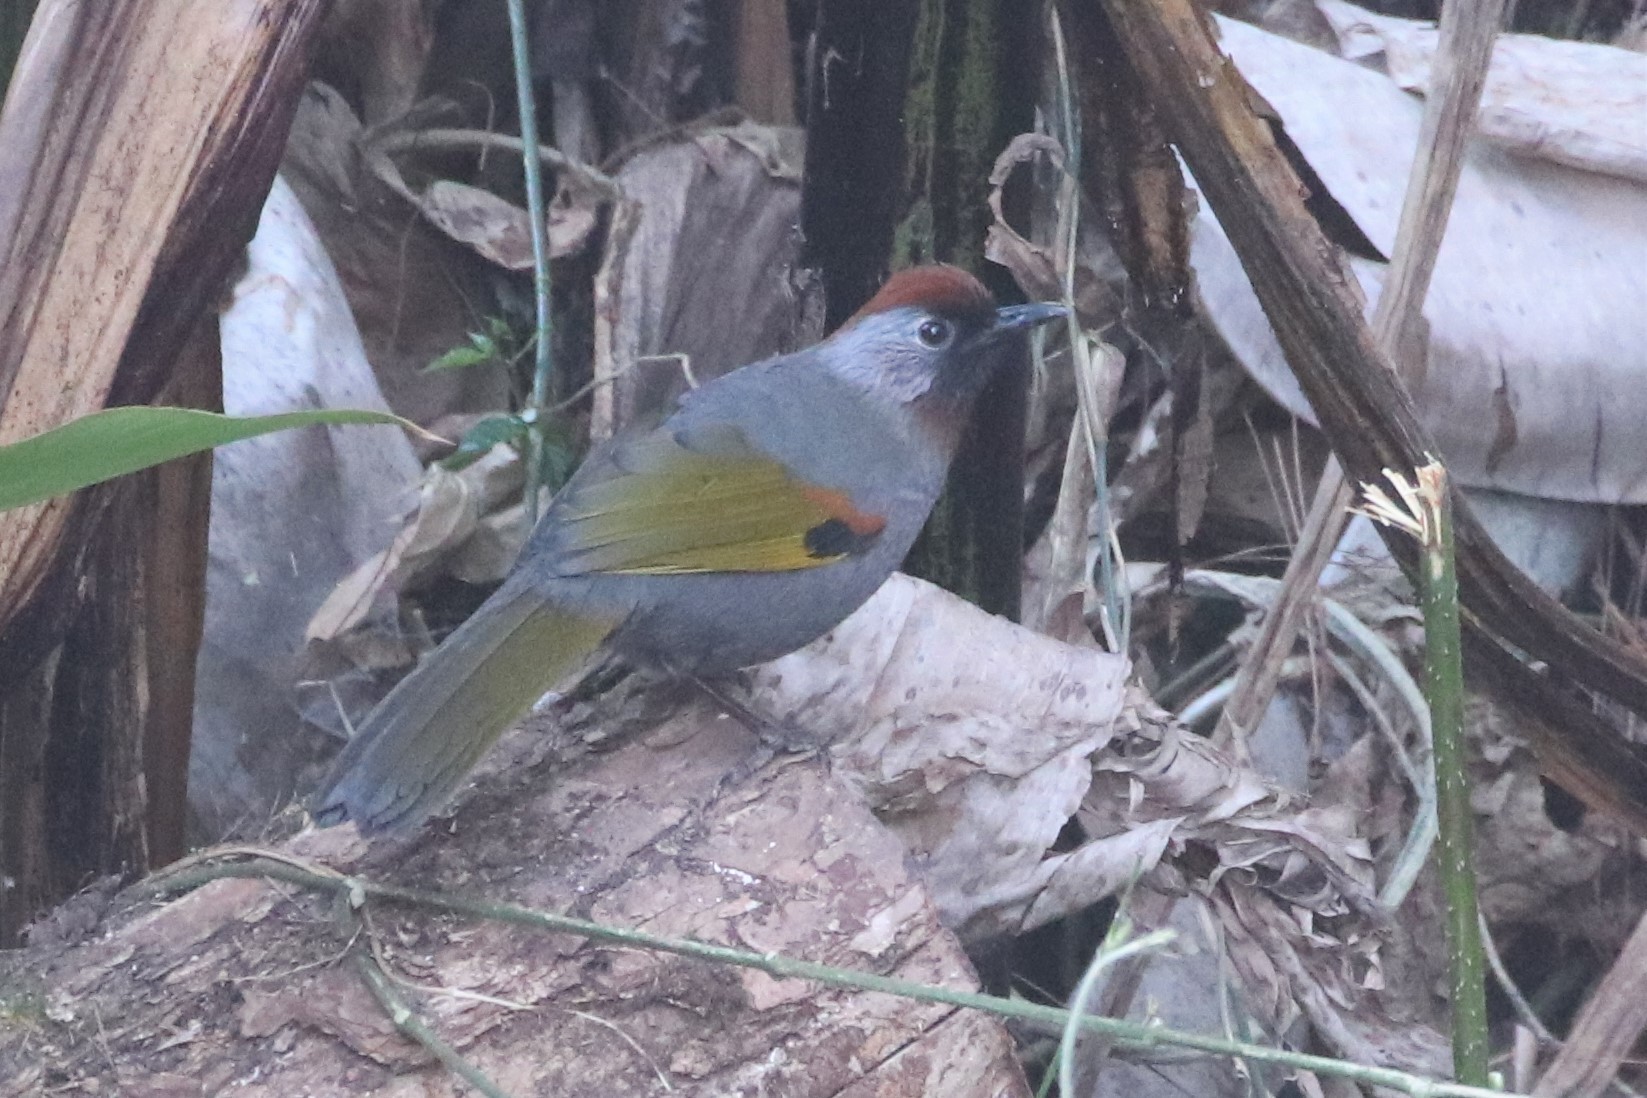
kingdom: Animalia
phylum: Chordata
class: Aves
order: Passeriformes
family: Leiothrichidae
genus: Trochalopteron
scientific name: Trochalopteron melanostigma
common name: Silver-eared laughingthrush
